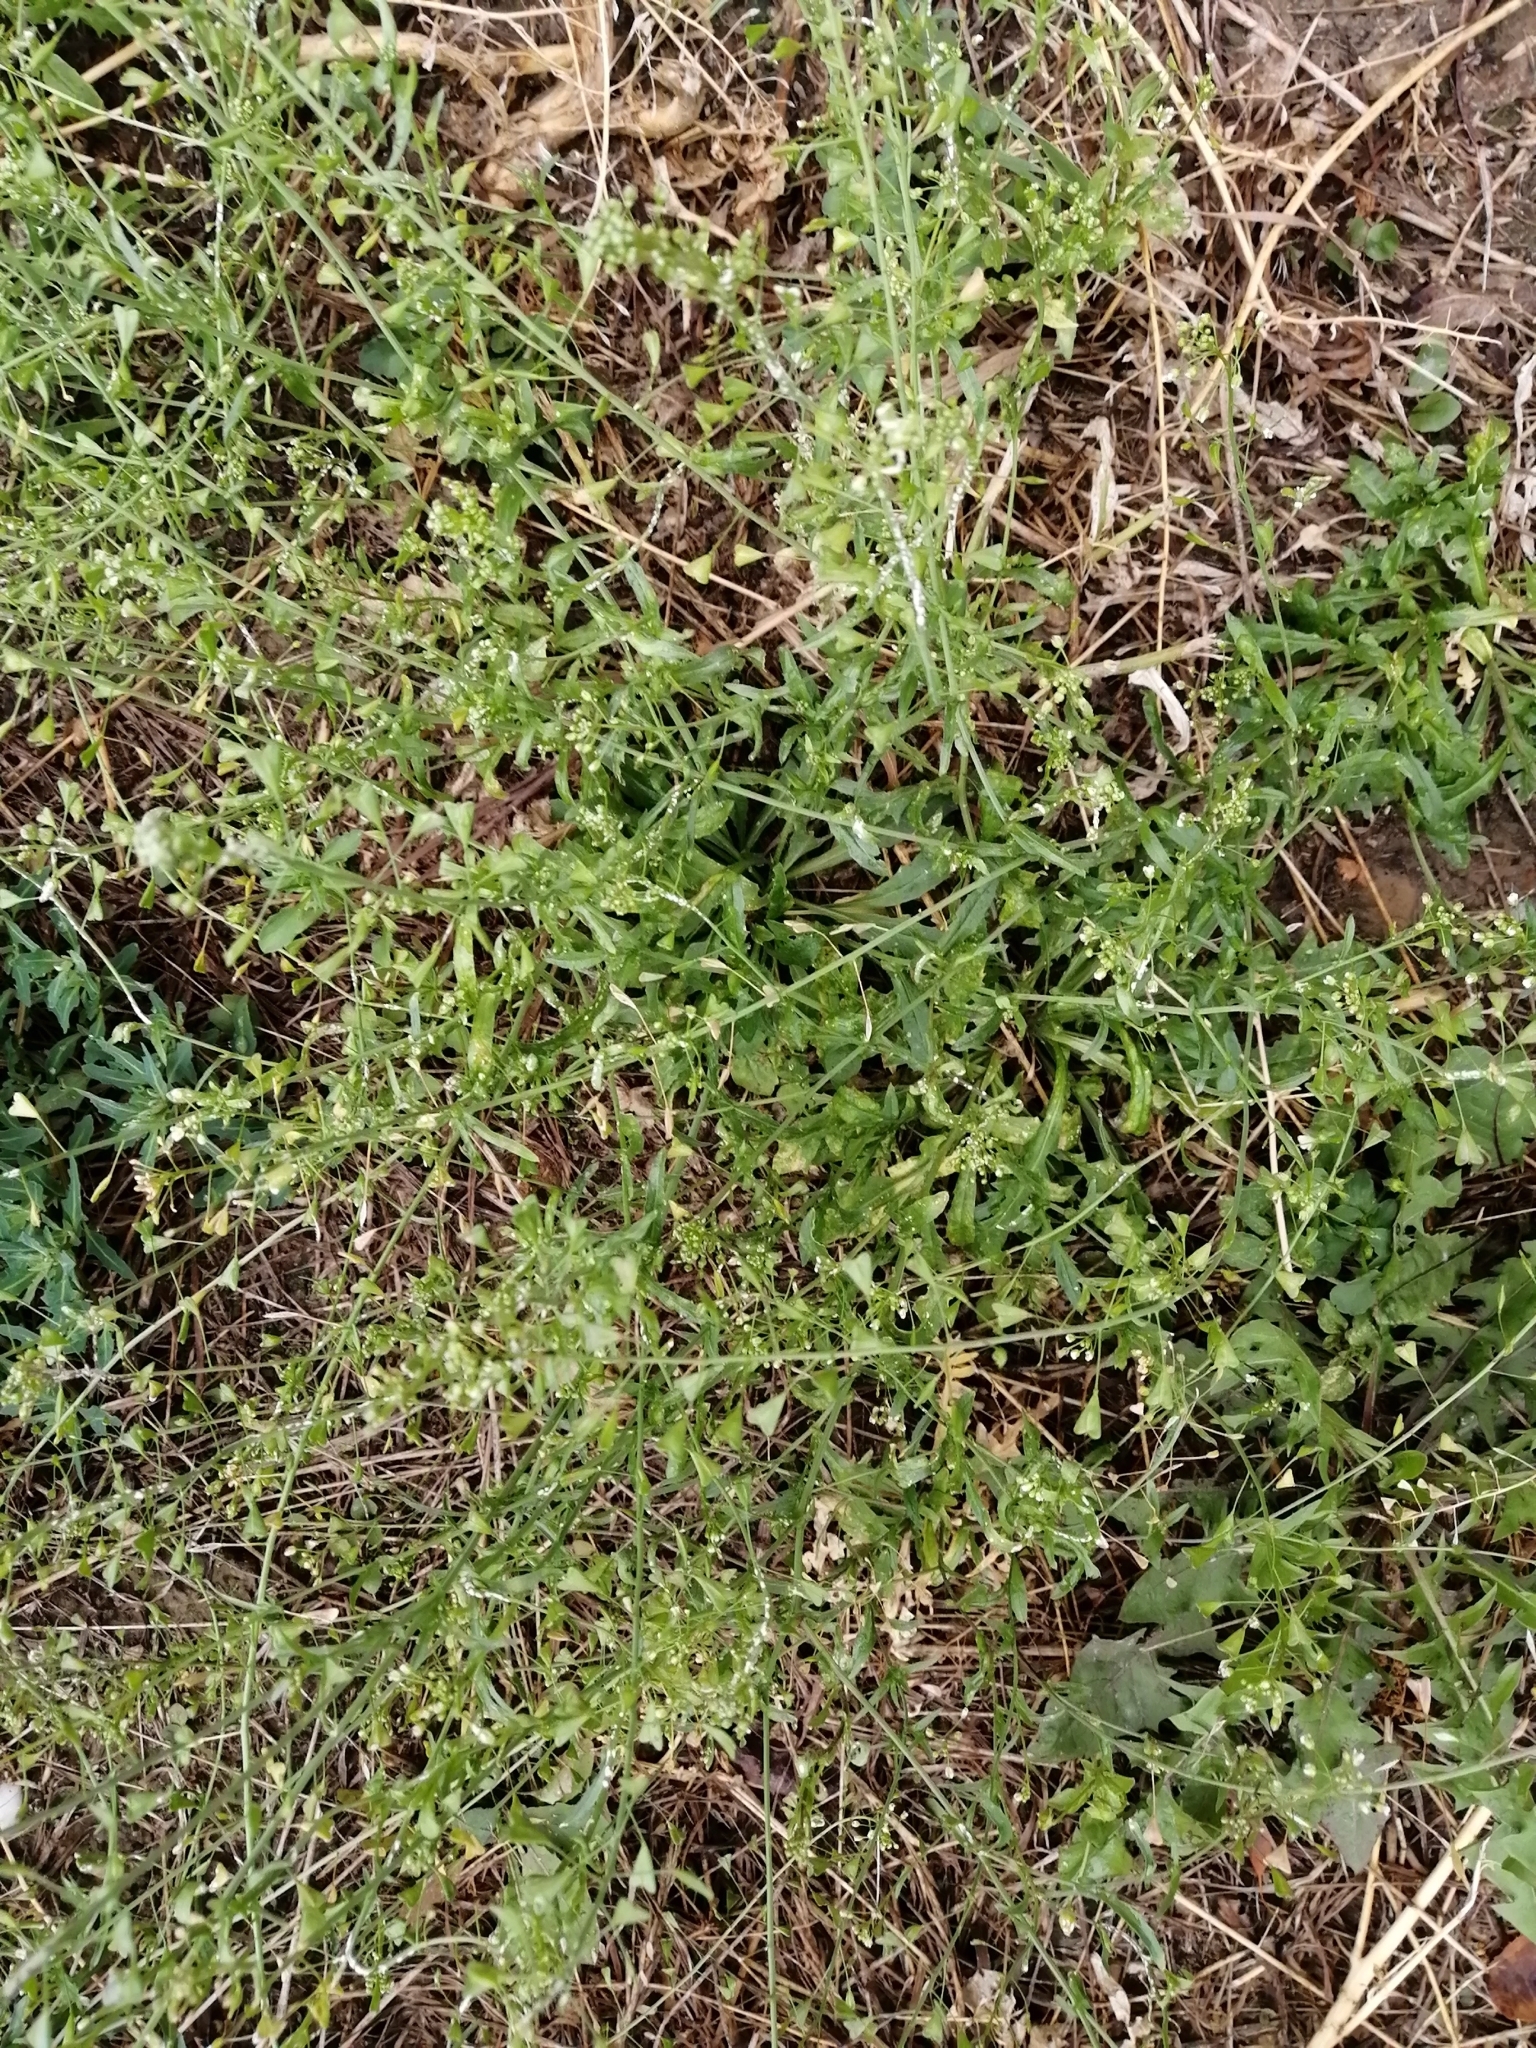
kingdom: Plantae
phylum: Tracheophyta
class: Magnoliopsida
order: Brassicales
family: Brassicaceae
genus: Capsella
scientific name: Capsella bursa-pastoris
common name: Shepherd's purse
